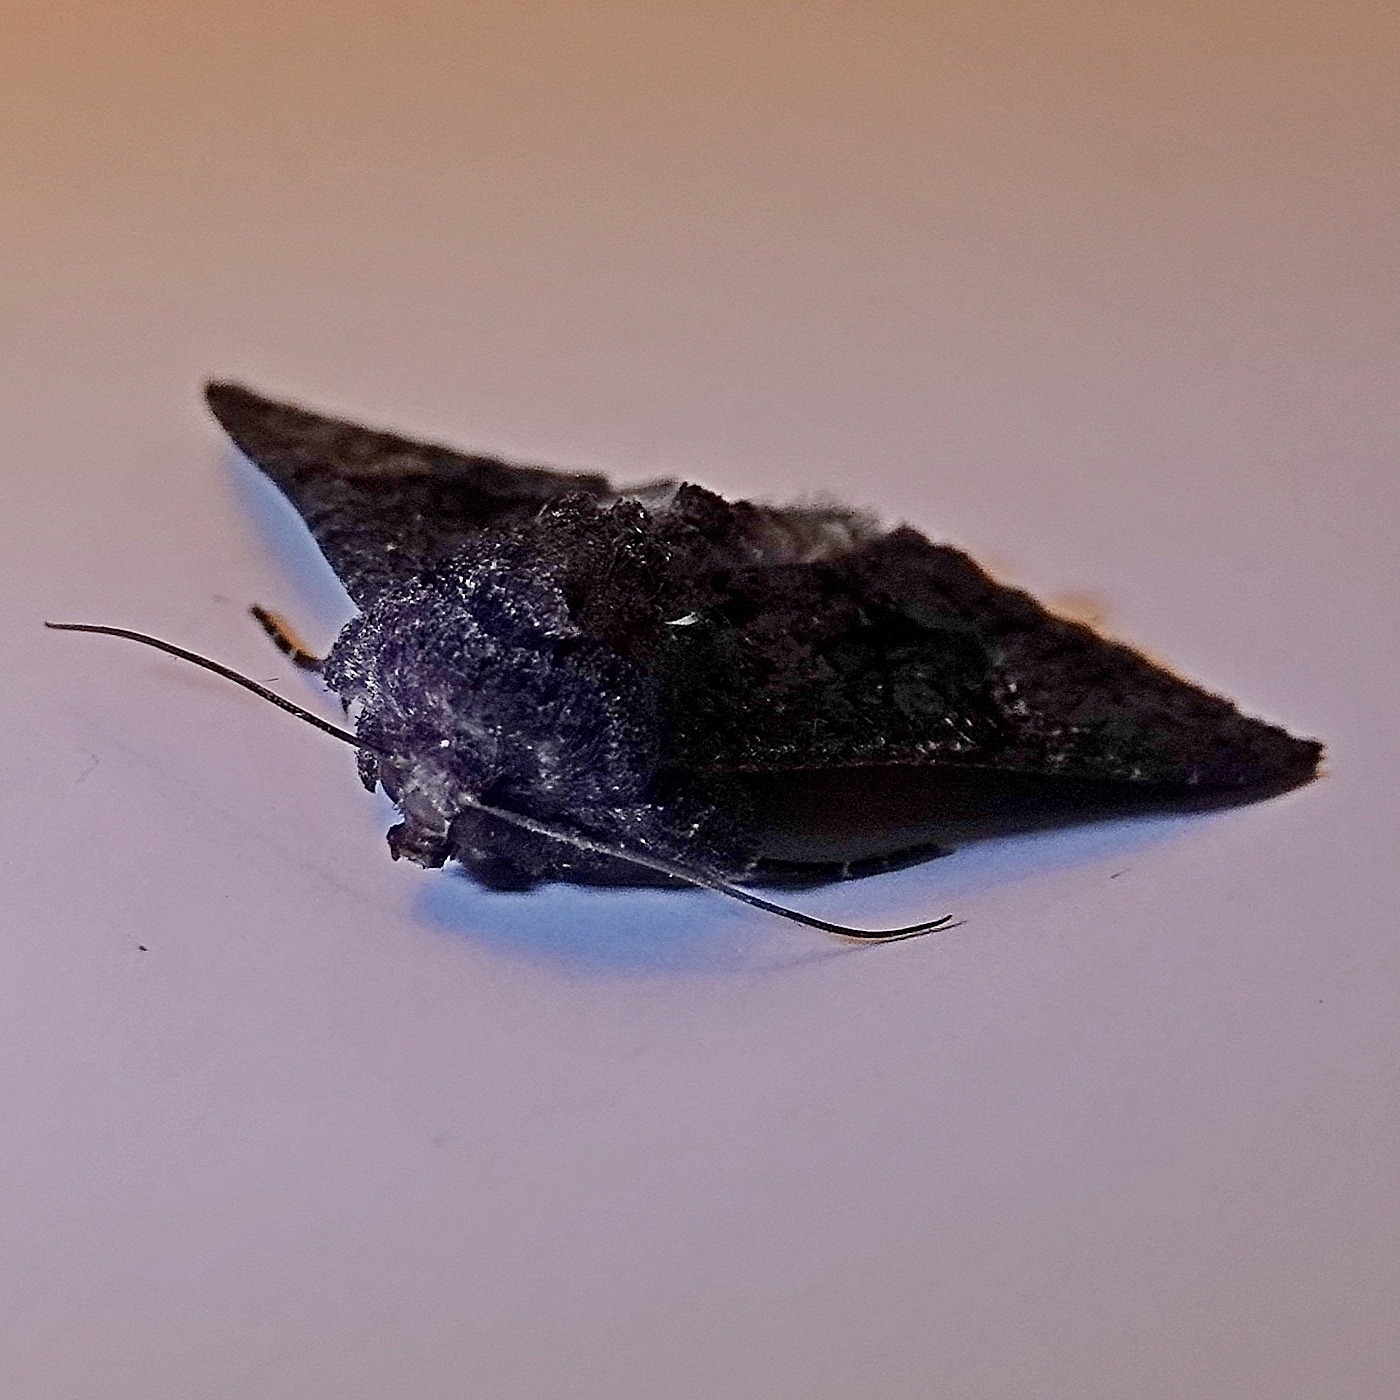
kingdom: Animalia
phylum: Arthropoda
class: Insecta
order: Lepidoptera
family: Noctuidae
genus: Neumichtis
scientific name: Neumichtis nigerrima
